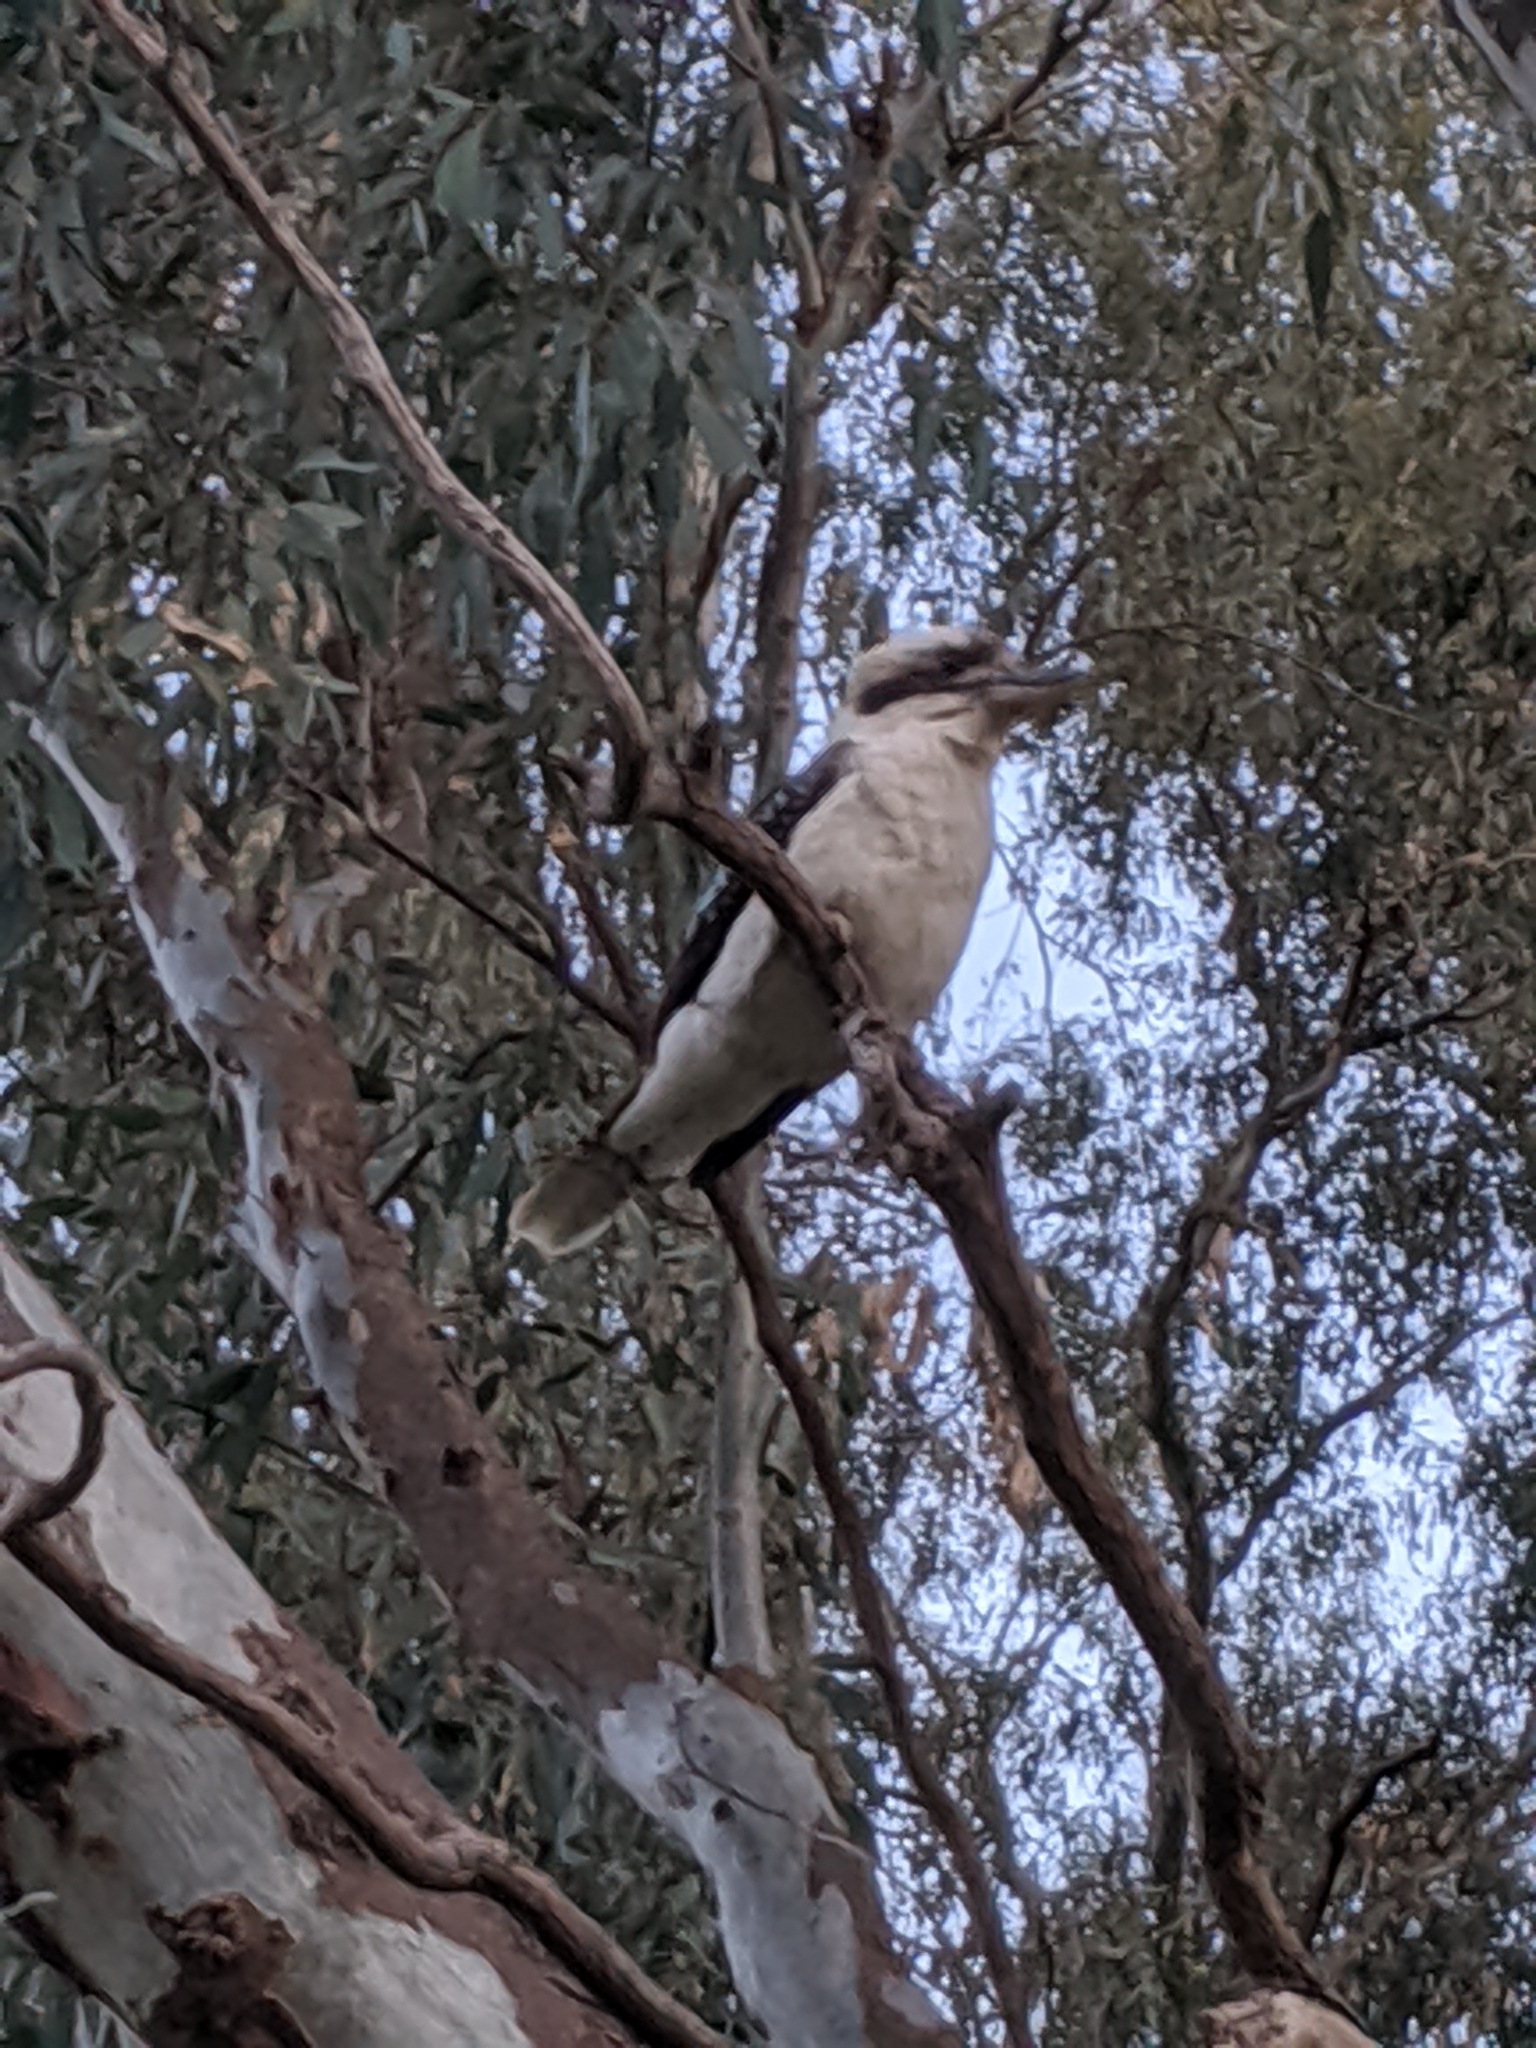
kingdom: Animalia
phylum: Chordata
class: Aves
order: Coraciiformes
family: Alcedinidae
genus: Dacelo
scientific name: Dacelo novaeguineae
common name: Laughing kookaburra
